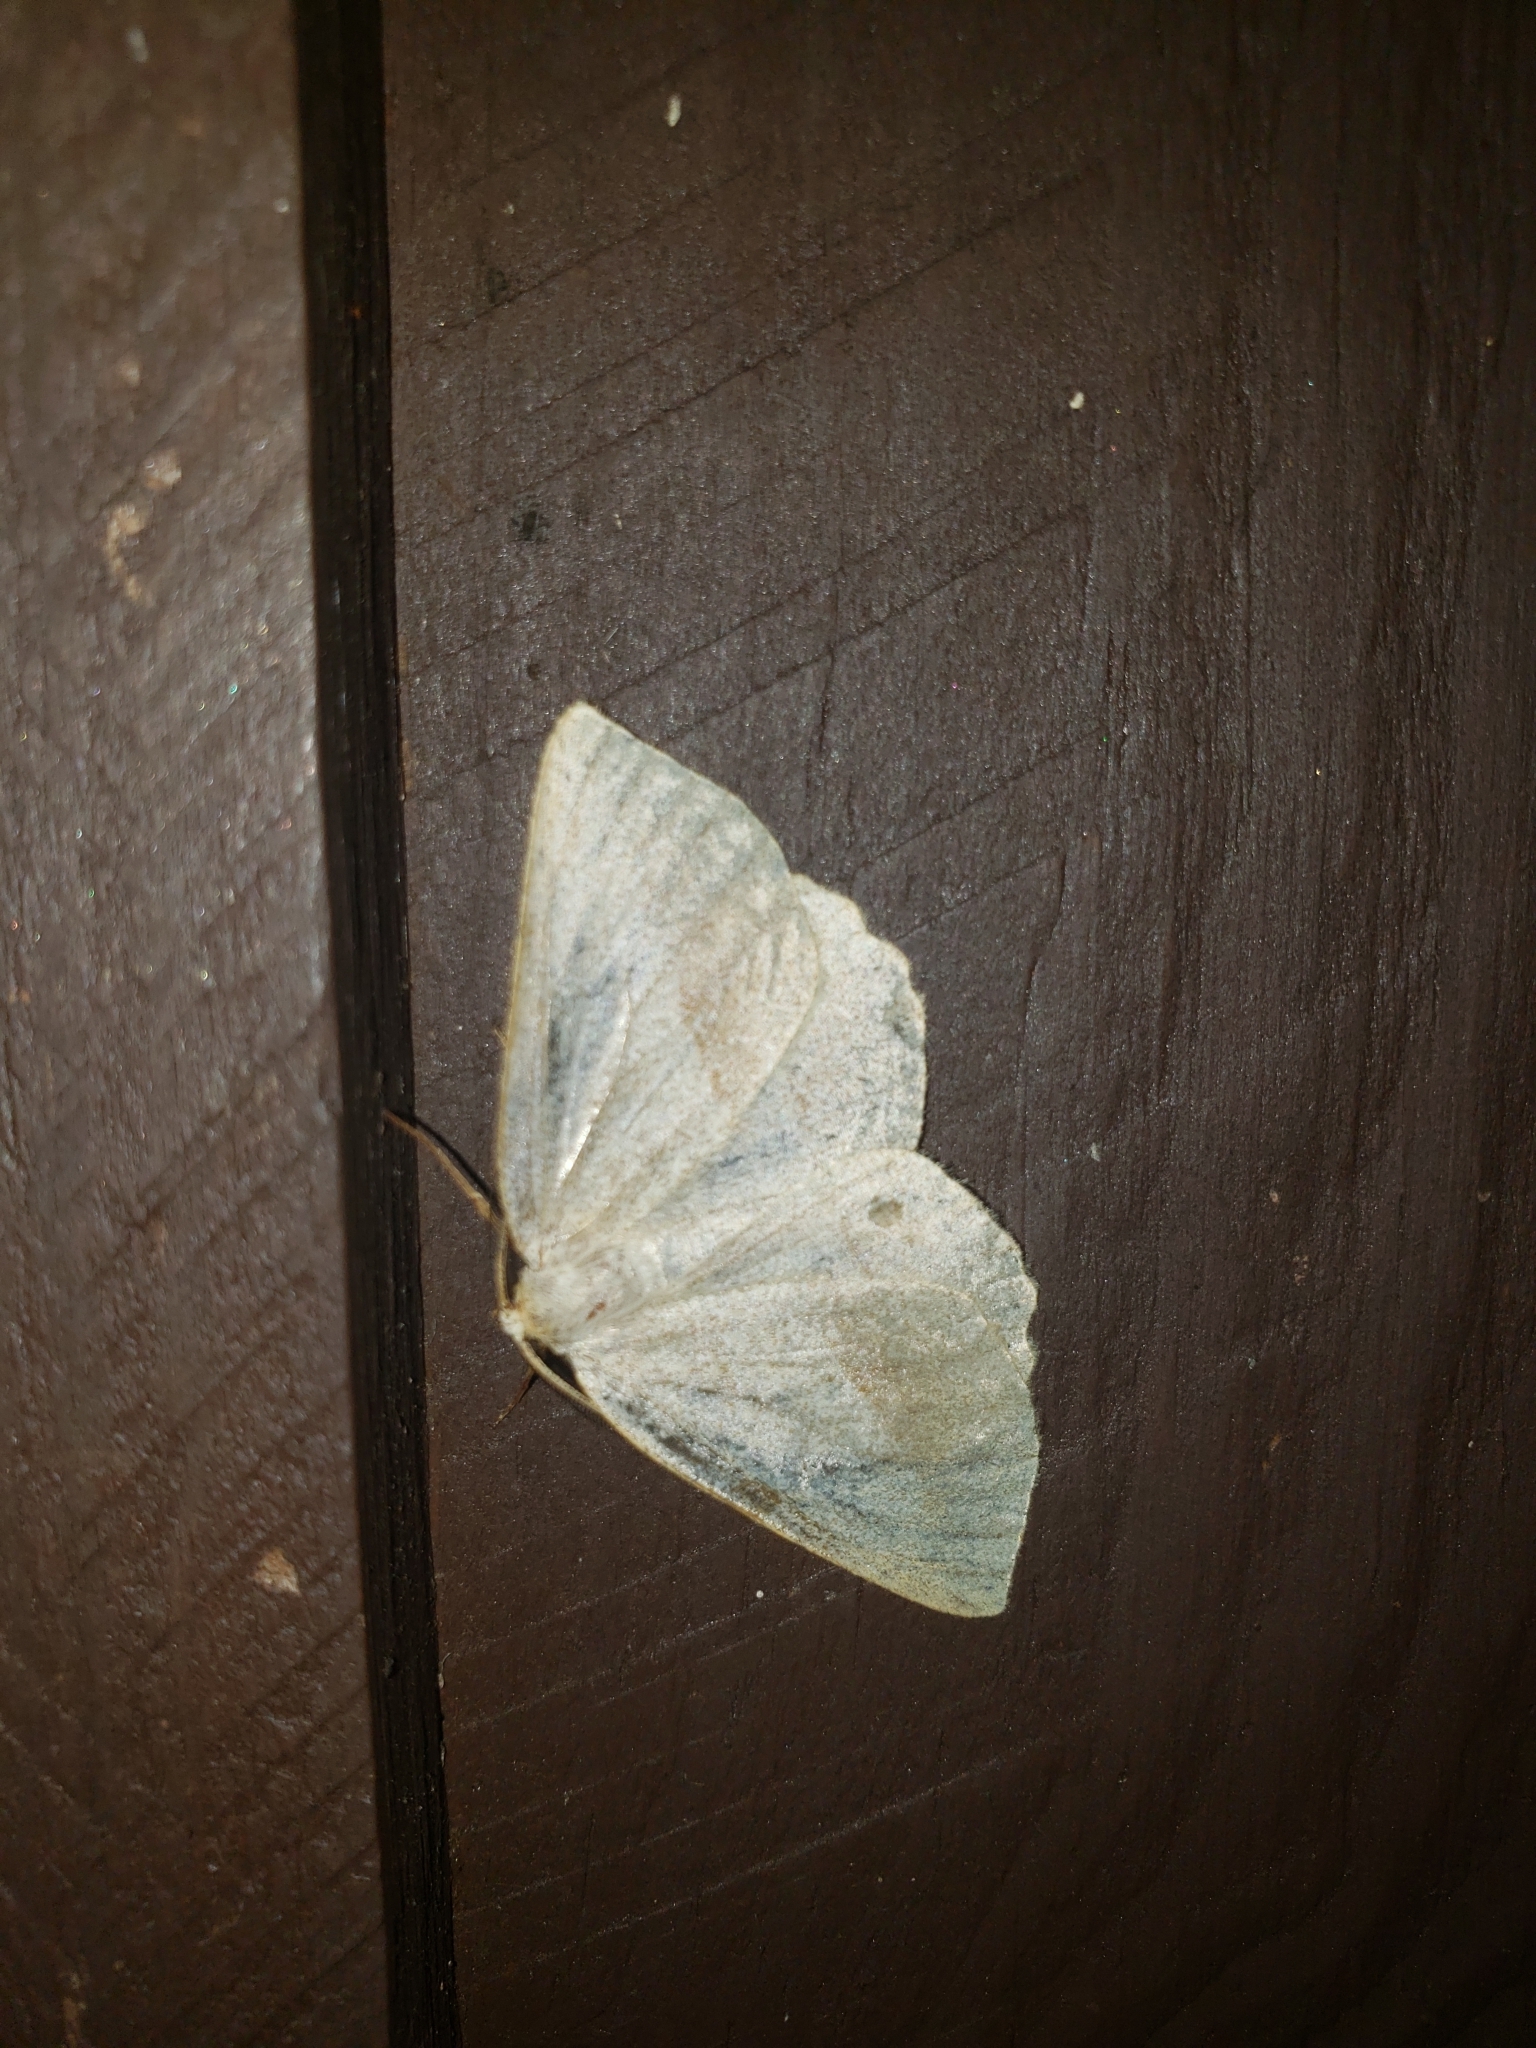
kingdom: Animalia
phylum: Arthropoda
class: Insecta
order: Lepidoptera
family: Geometridae
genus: Euchlaena
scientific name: Euchlaena irraria
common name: Least-marked euchlaena
